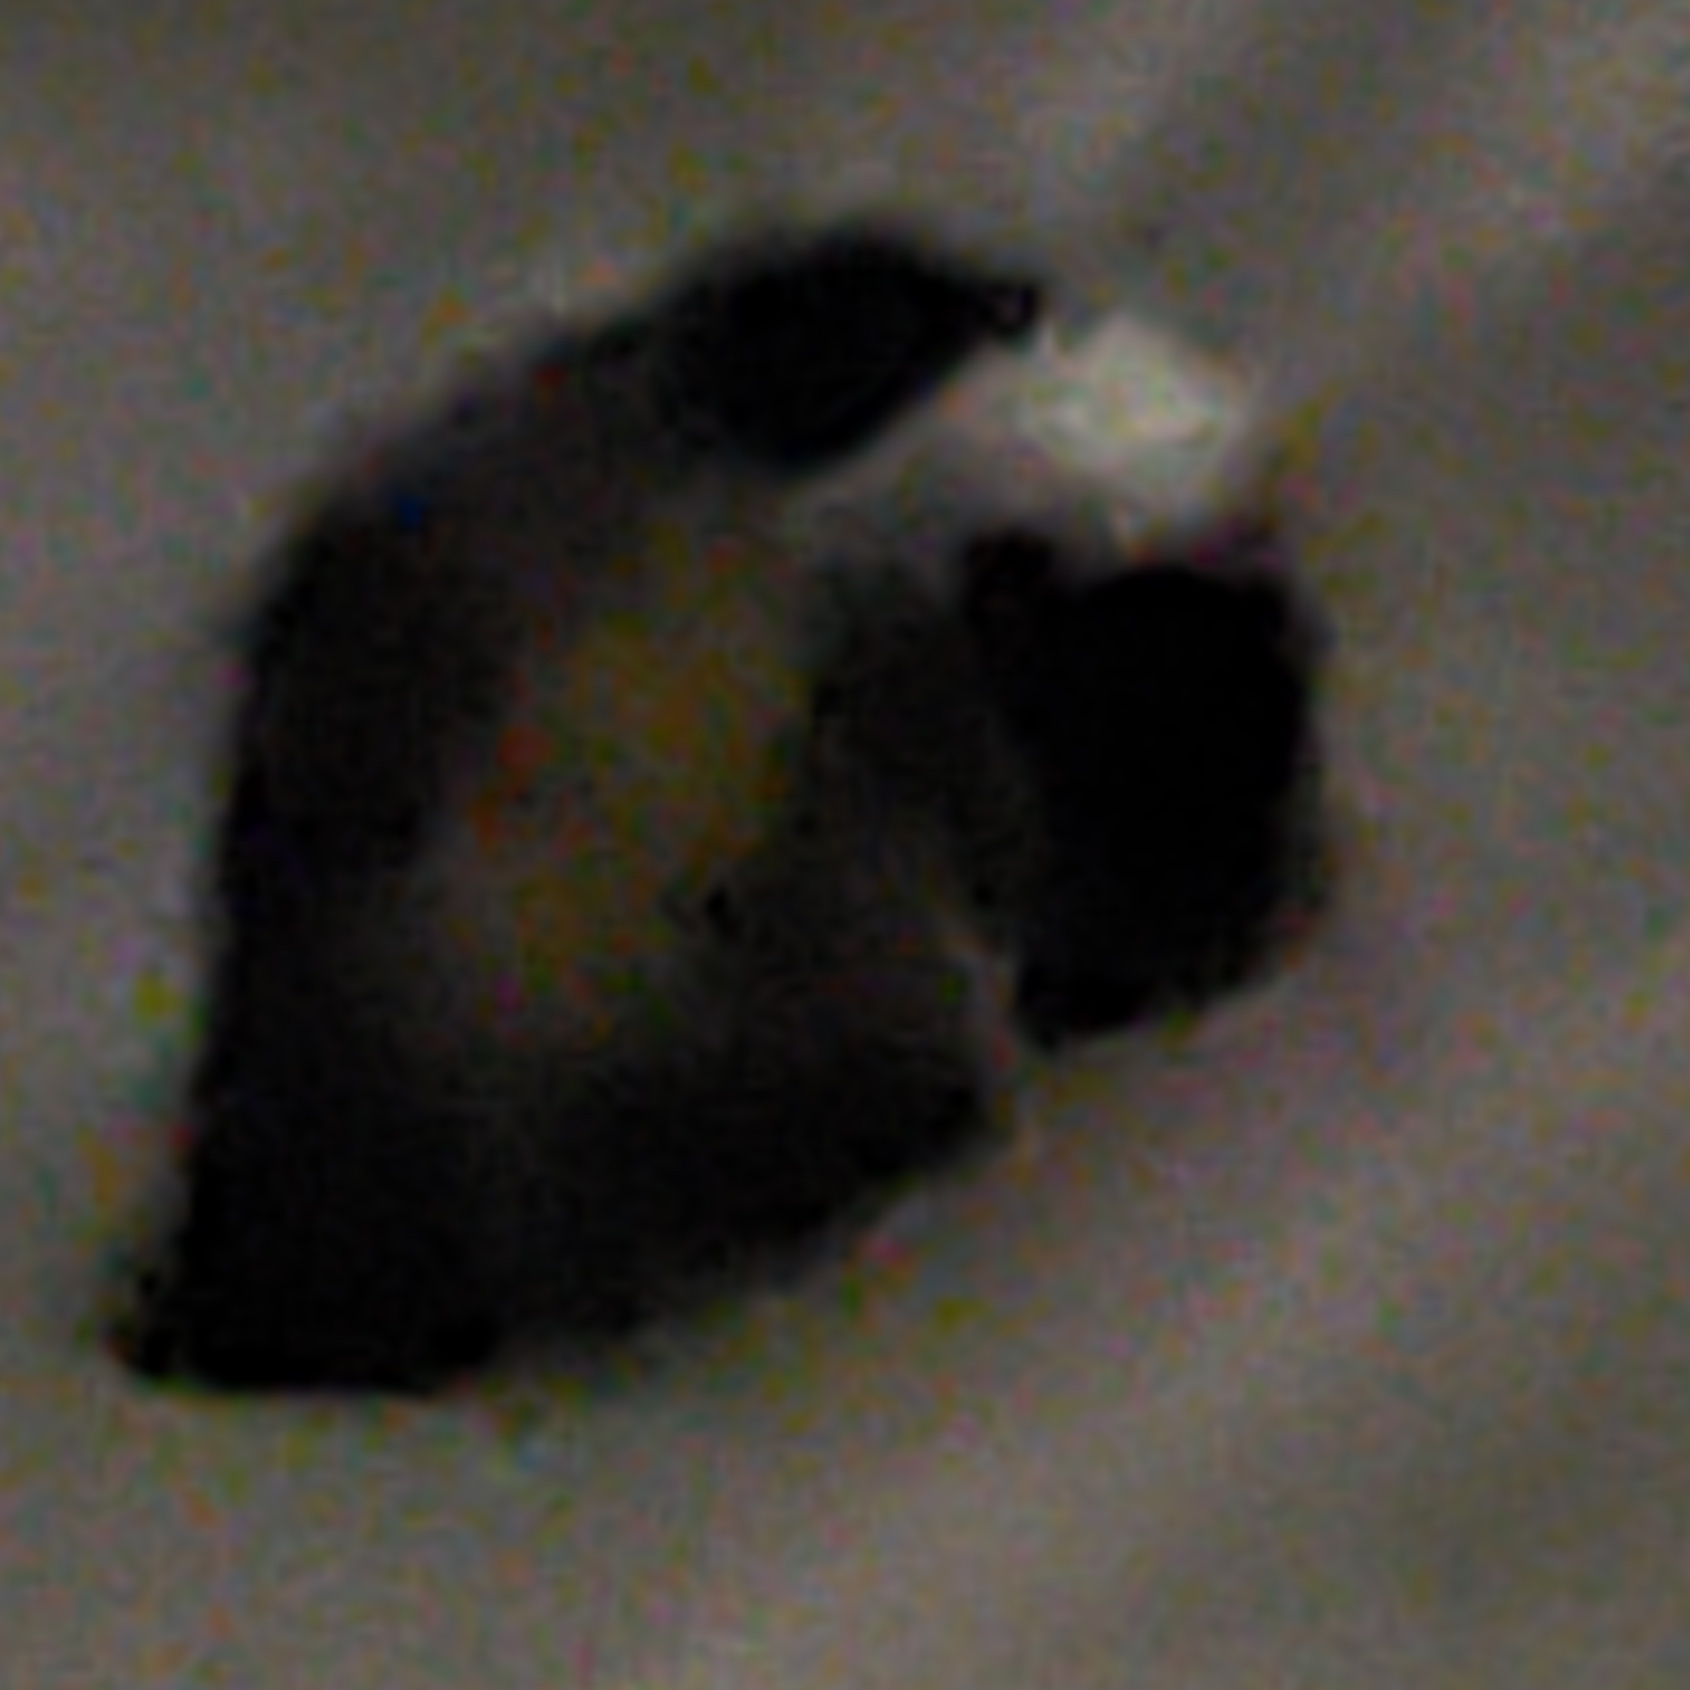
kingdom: Animalia
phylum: Chordata
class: Mammalia
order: Carnivora
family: Mephitidae
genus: Mephitis
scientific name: Mephitis mephitis
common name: Striped skunk
